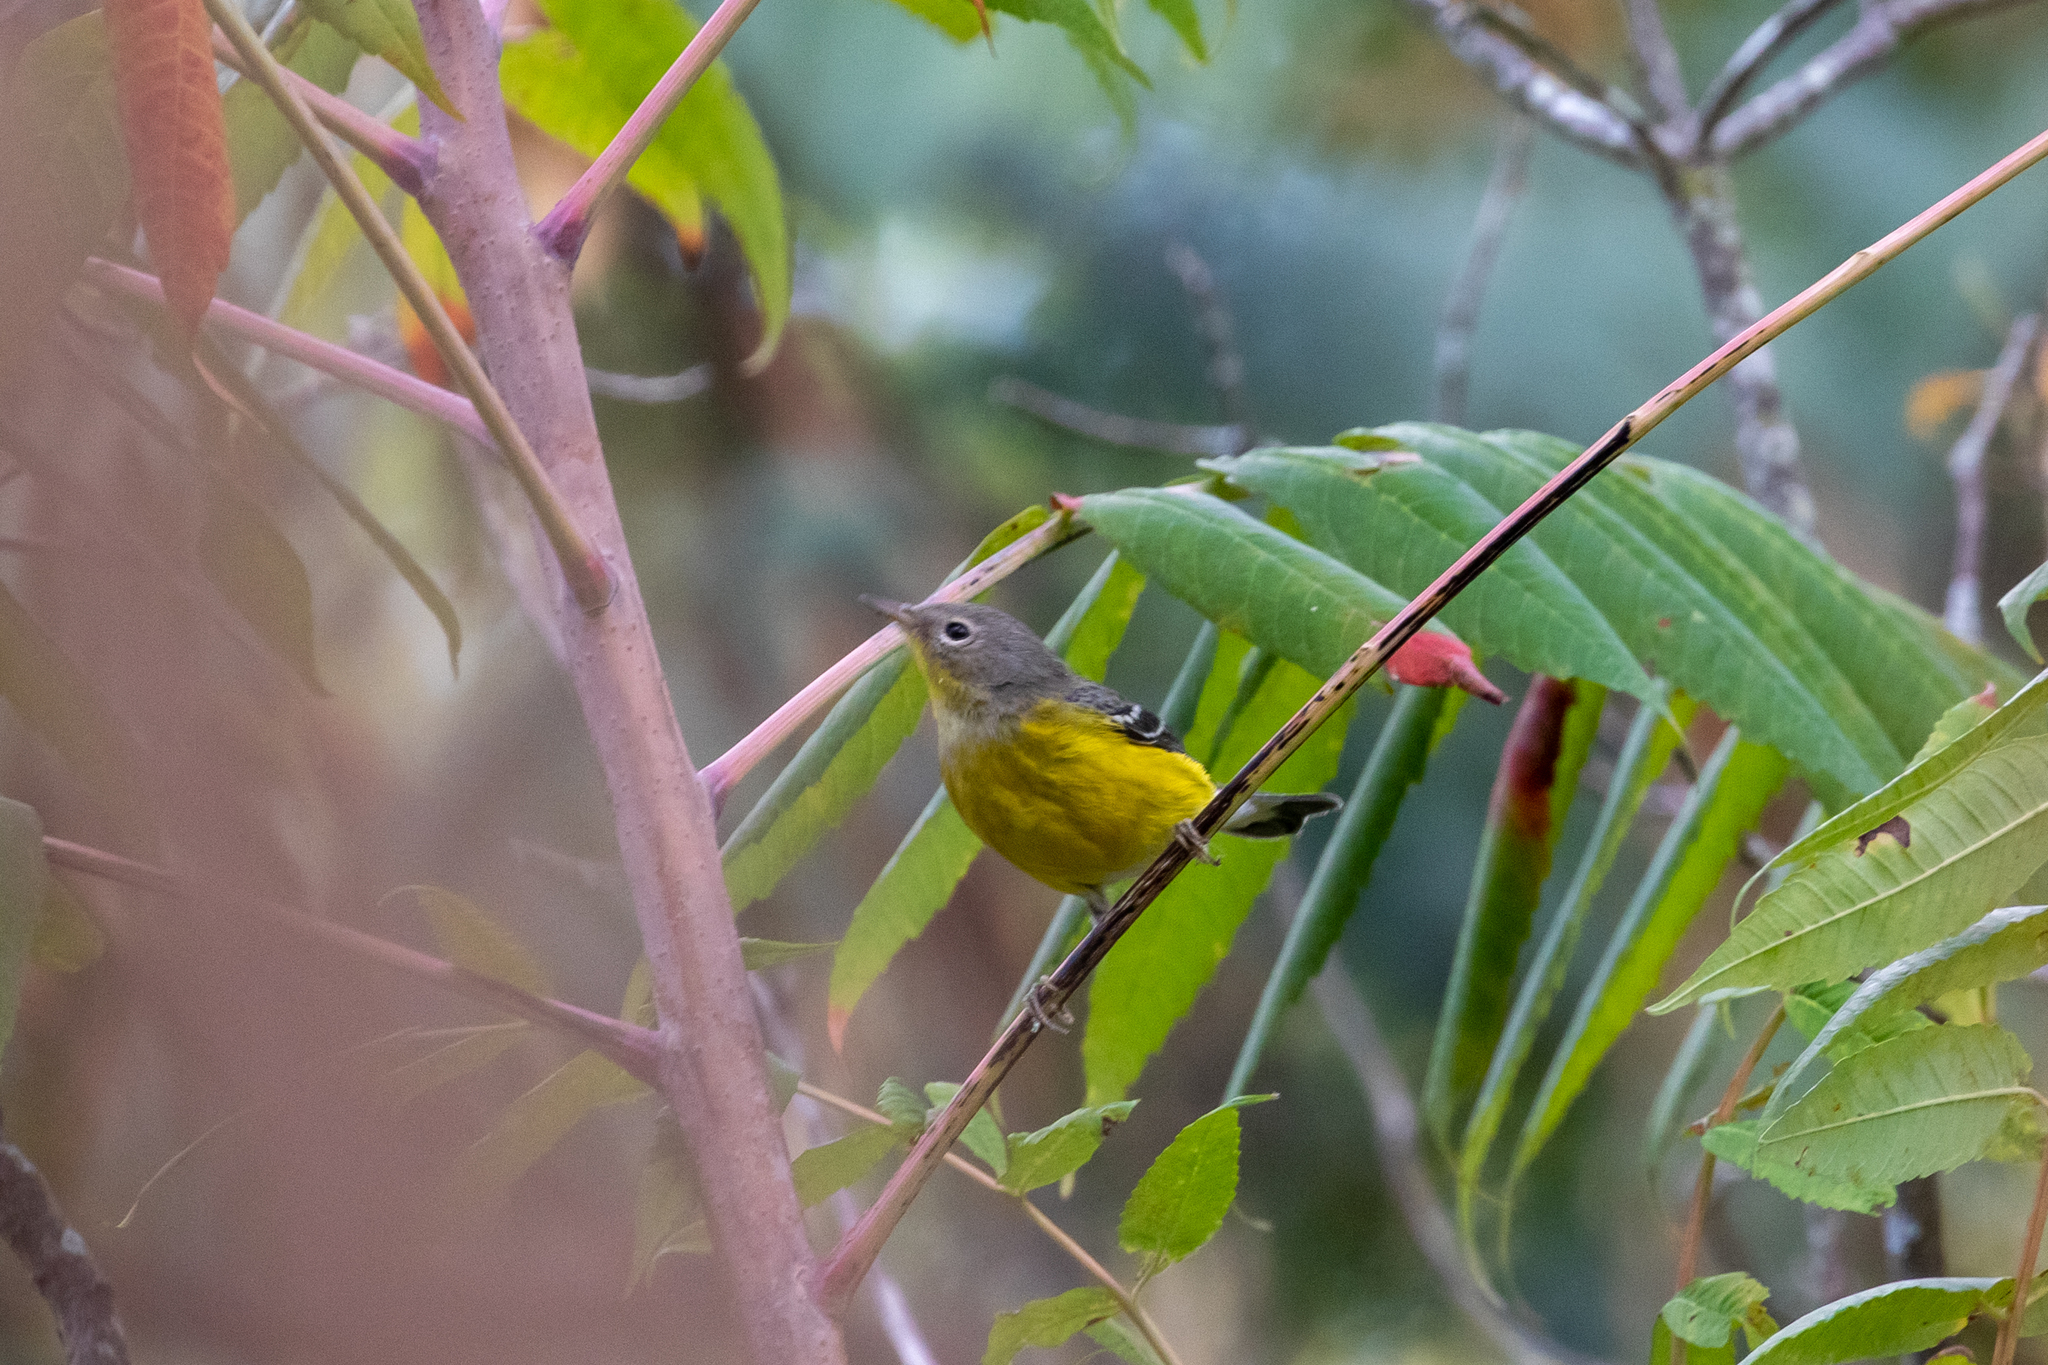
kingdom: Animalia
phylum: Chordata
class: Aves
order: Passeriformes
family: Parulidae
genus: Setophaga
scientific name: Setophaga magnolia
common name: Magnolia warbler
